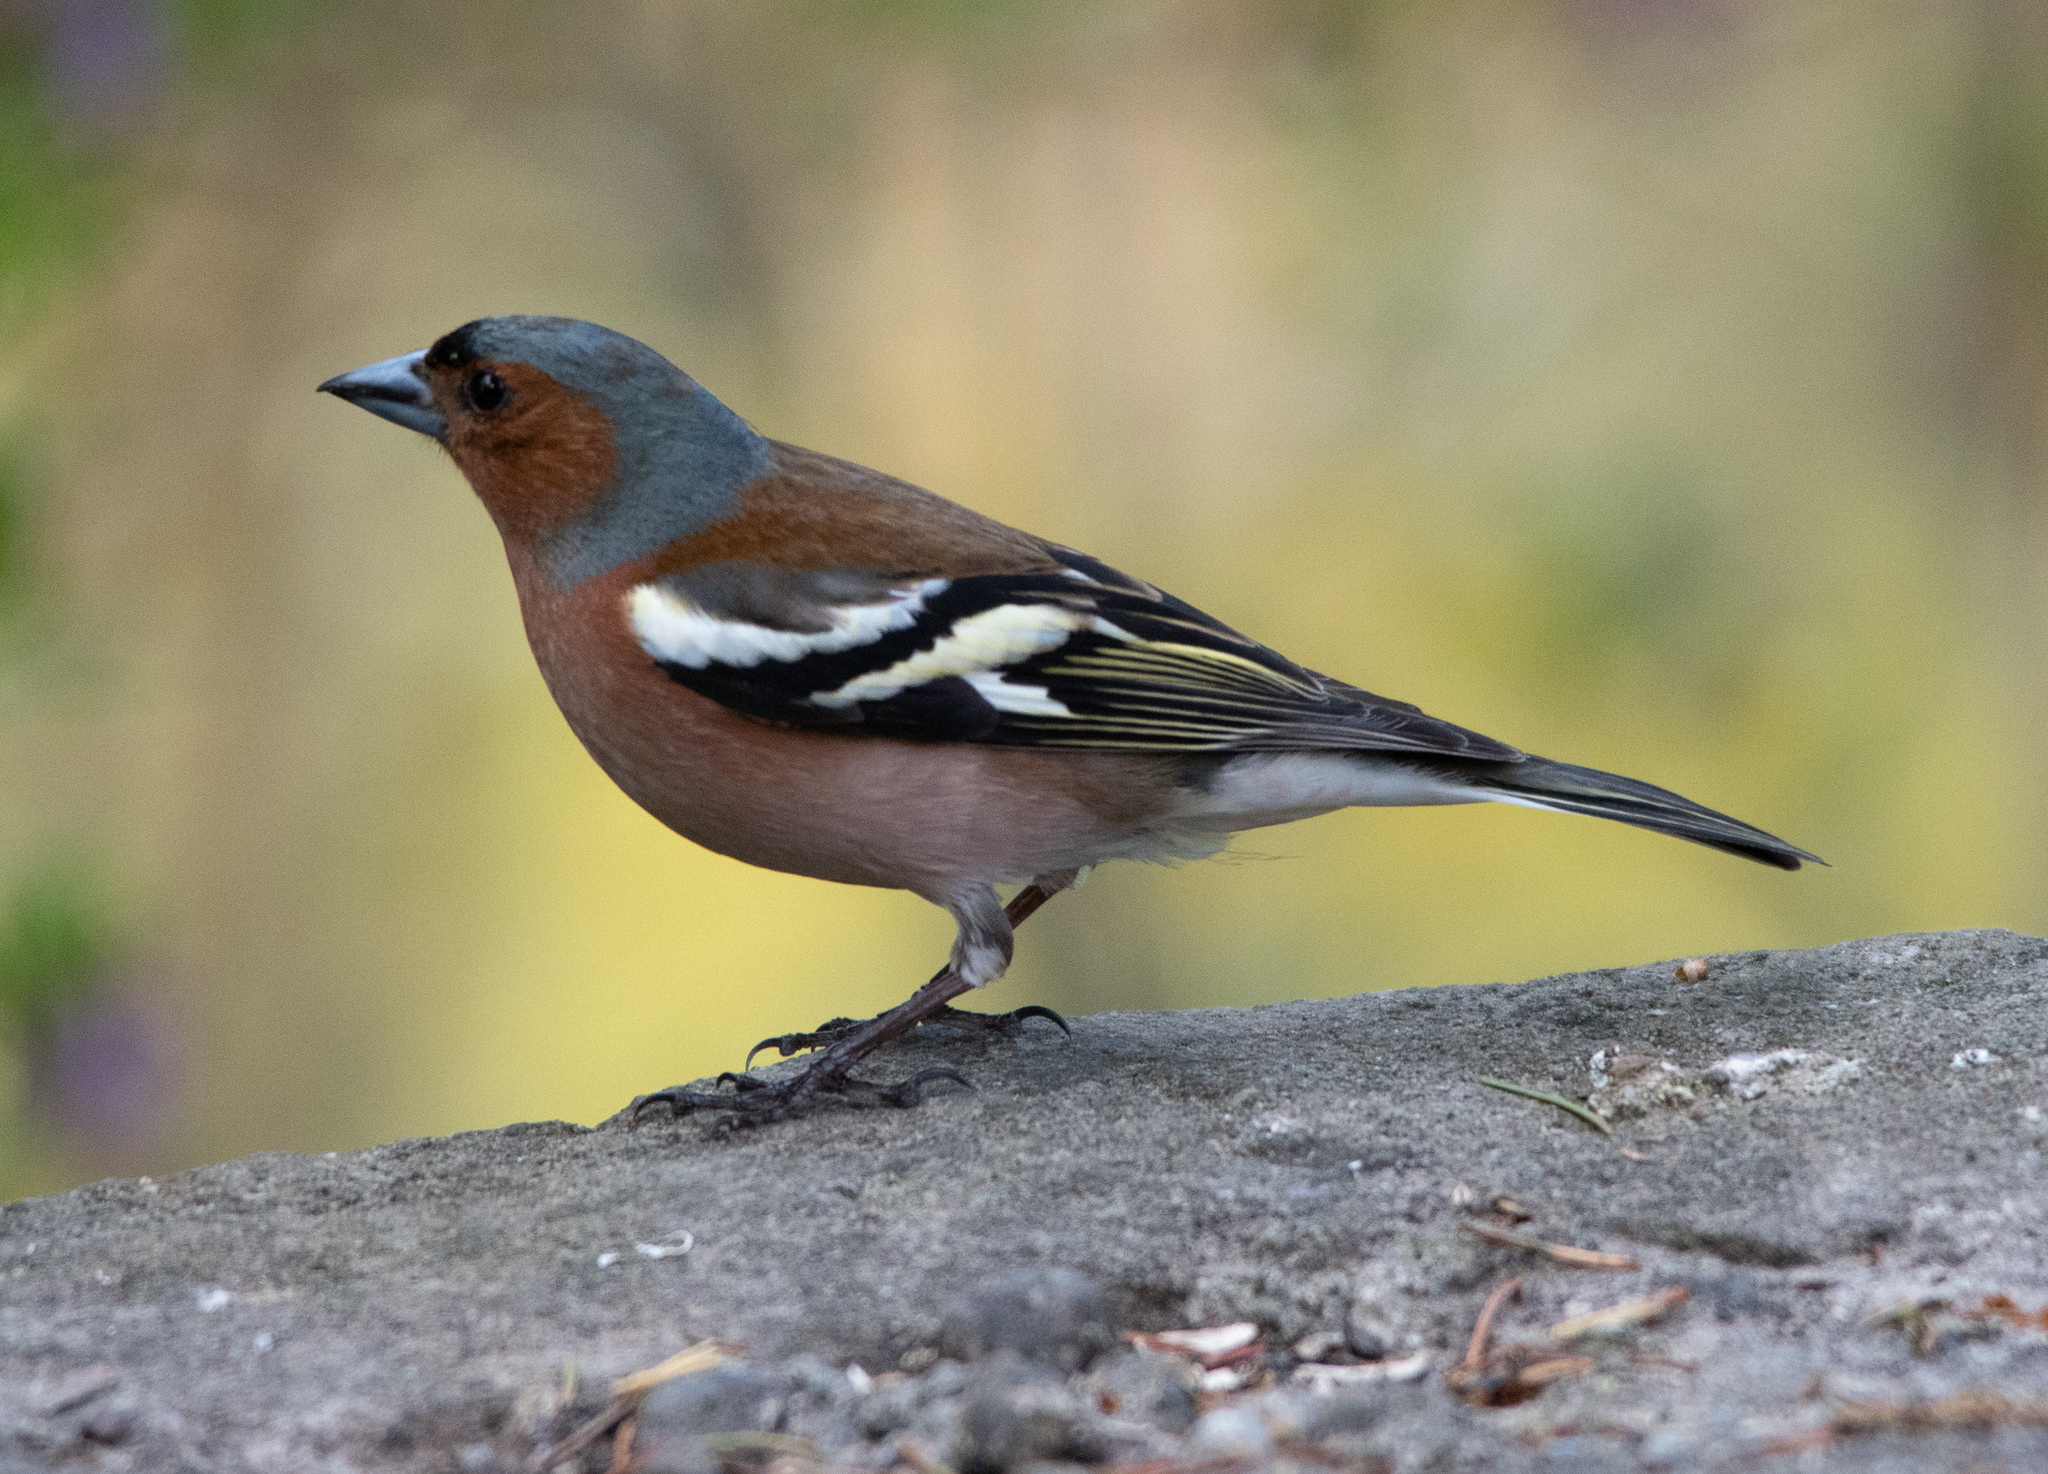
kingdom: Animalia
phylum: Chordata
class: Aves
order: Passeriformes
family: Fringillidae
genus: Fringilla
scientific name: Fringilla coelebs
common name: Common chaffinch
